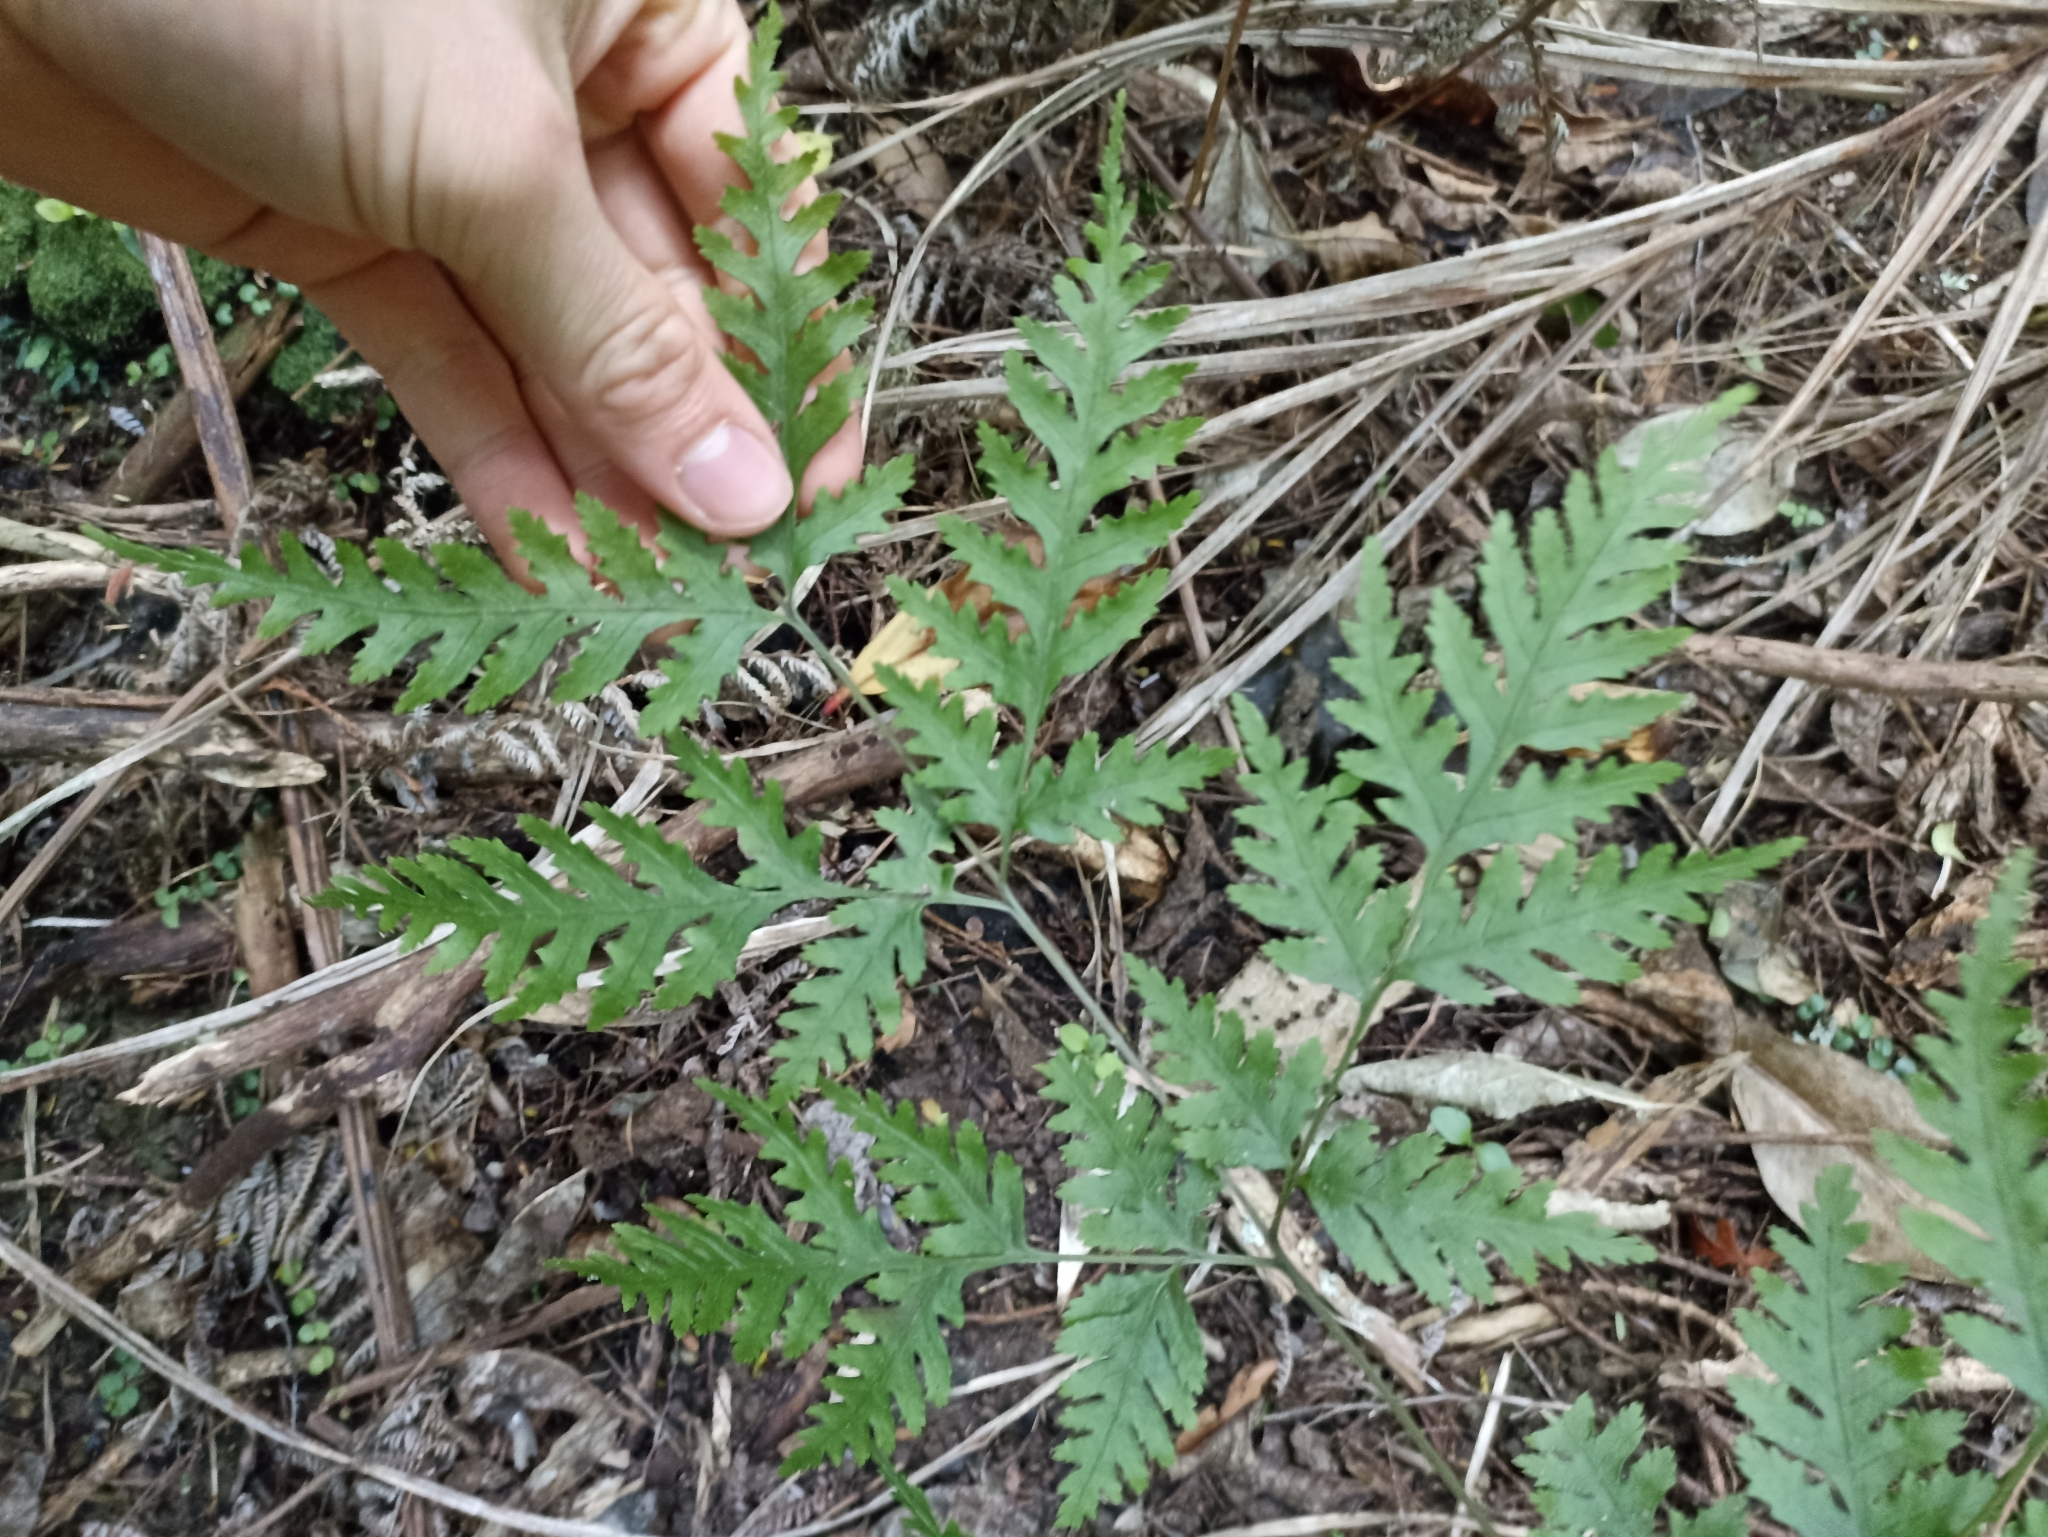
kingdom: Plantae
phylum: Tracheophyta
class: Polypodiopsida
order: Polypodiales
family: Pteridaceae
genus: Pteris
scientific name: Pteris macilenta
